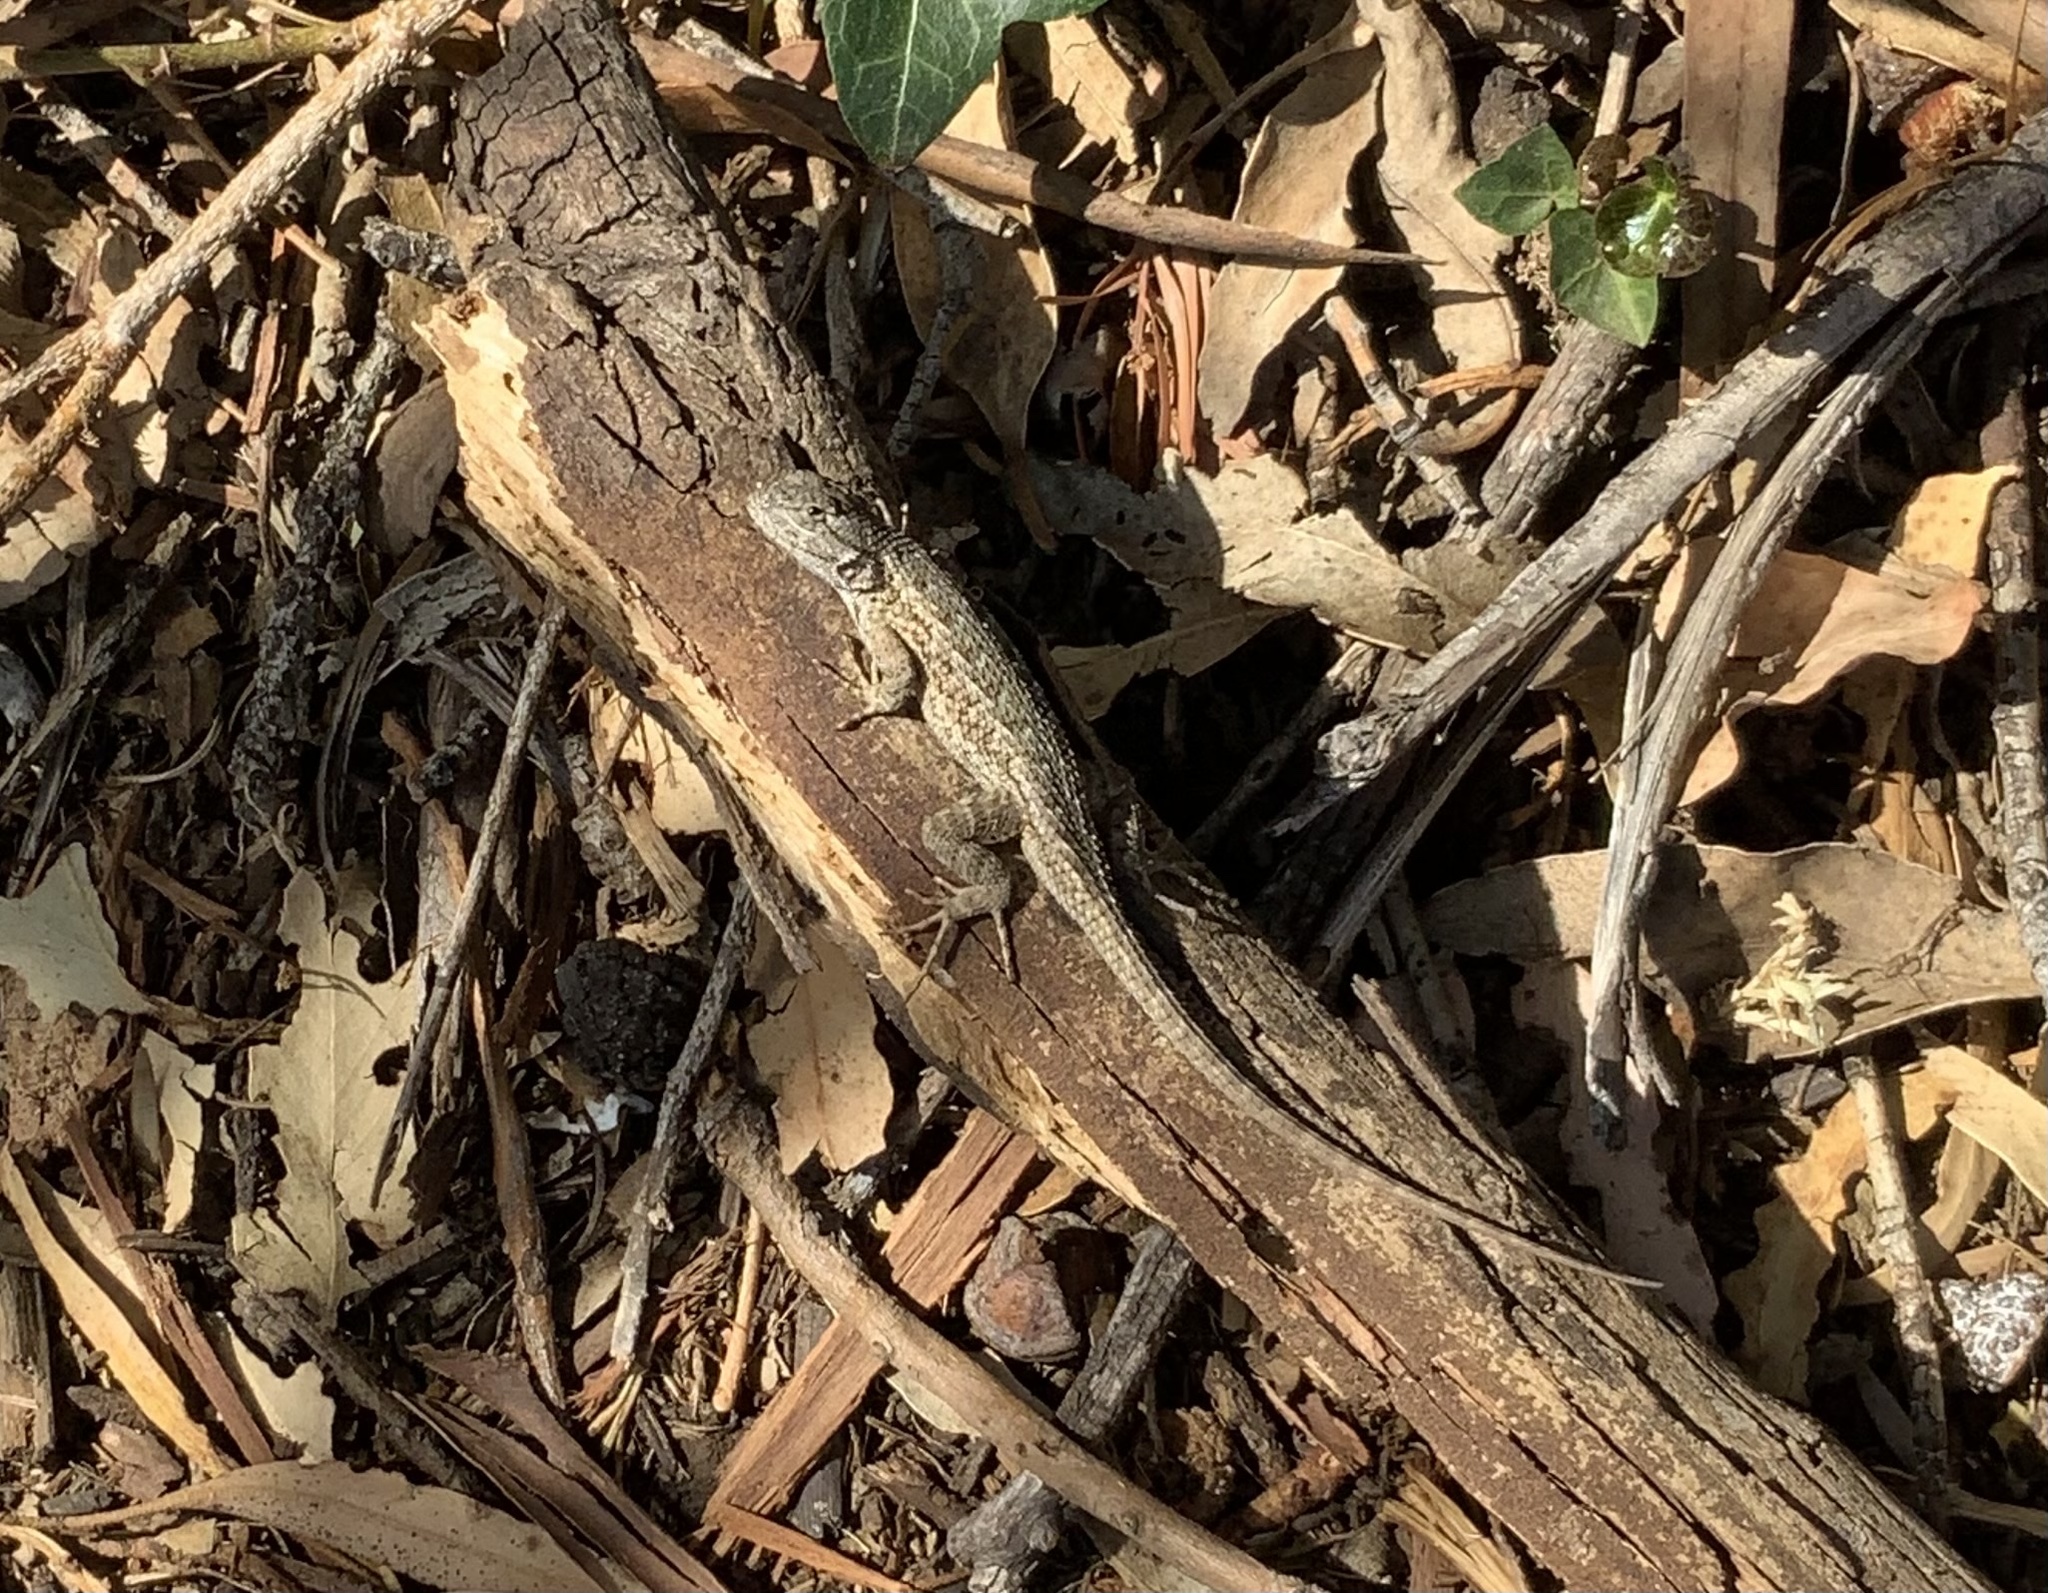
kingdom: Animalia
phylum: Chordata
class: Squamata
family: Phrynosomatidae
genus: Sceloporus
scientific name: Sceloporus occidentalis
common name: Western fence lizard
